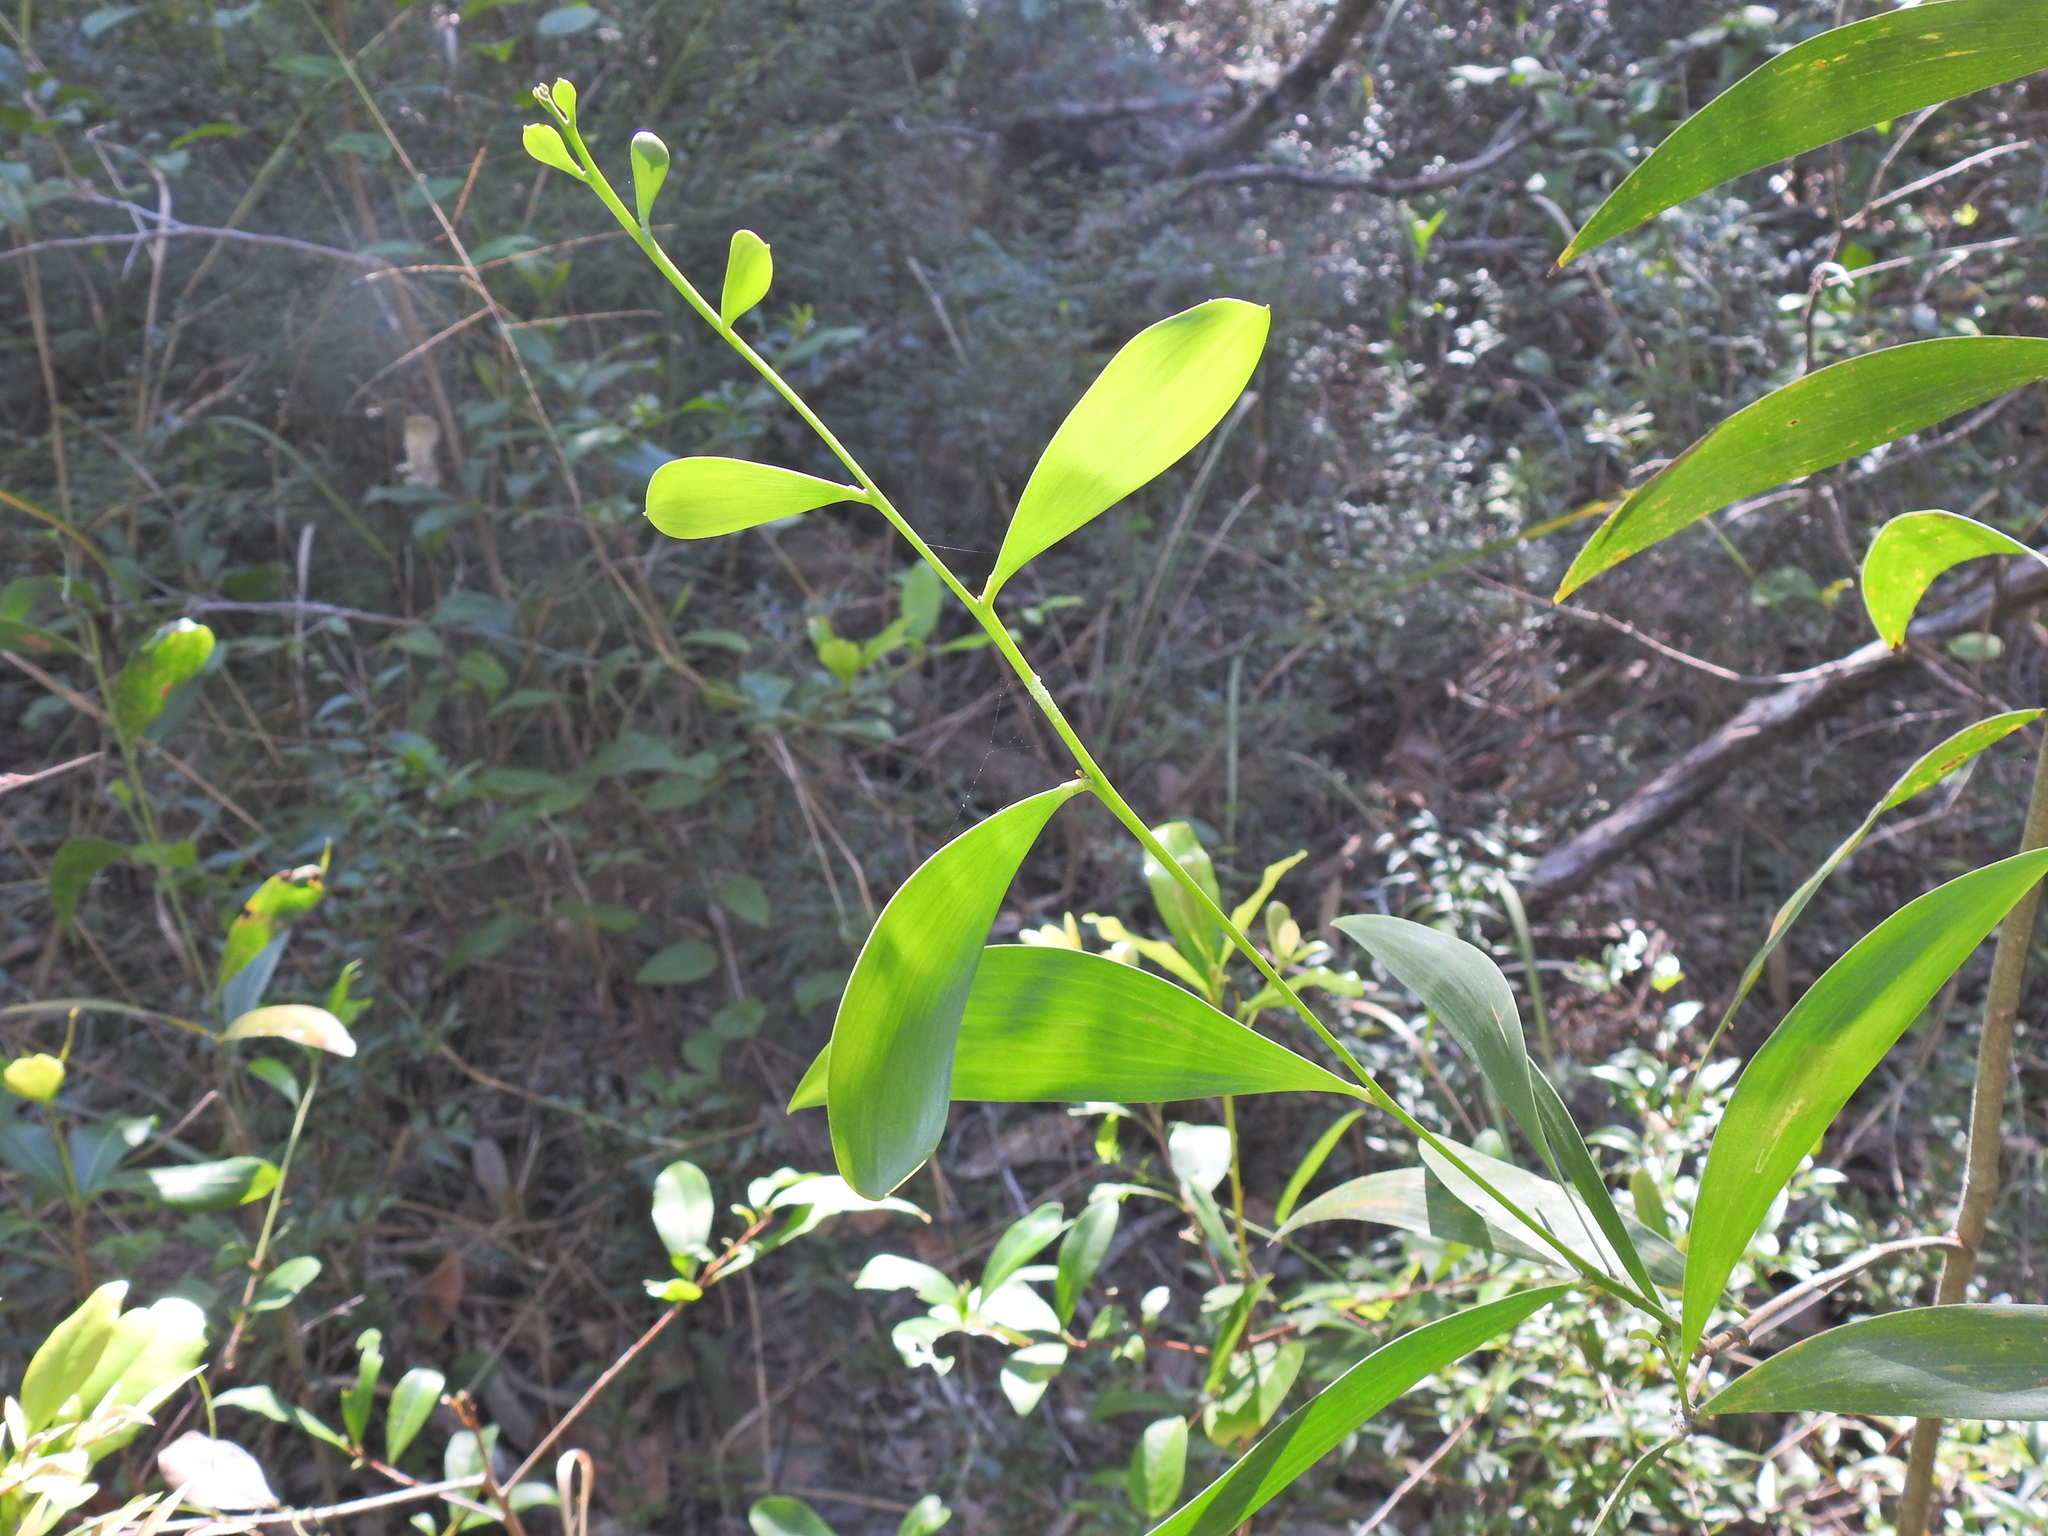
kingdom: Plantae
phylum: Tracheophyta
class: Magnoliopsida
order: Fabales
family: Fabaceae
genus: Acacia
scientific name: Acacia disparrima
